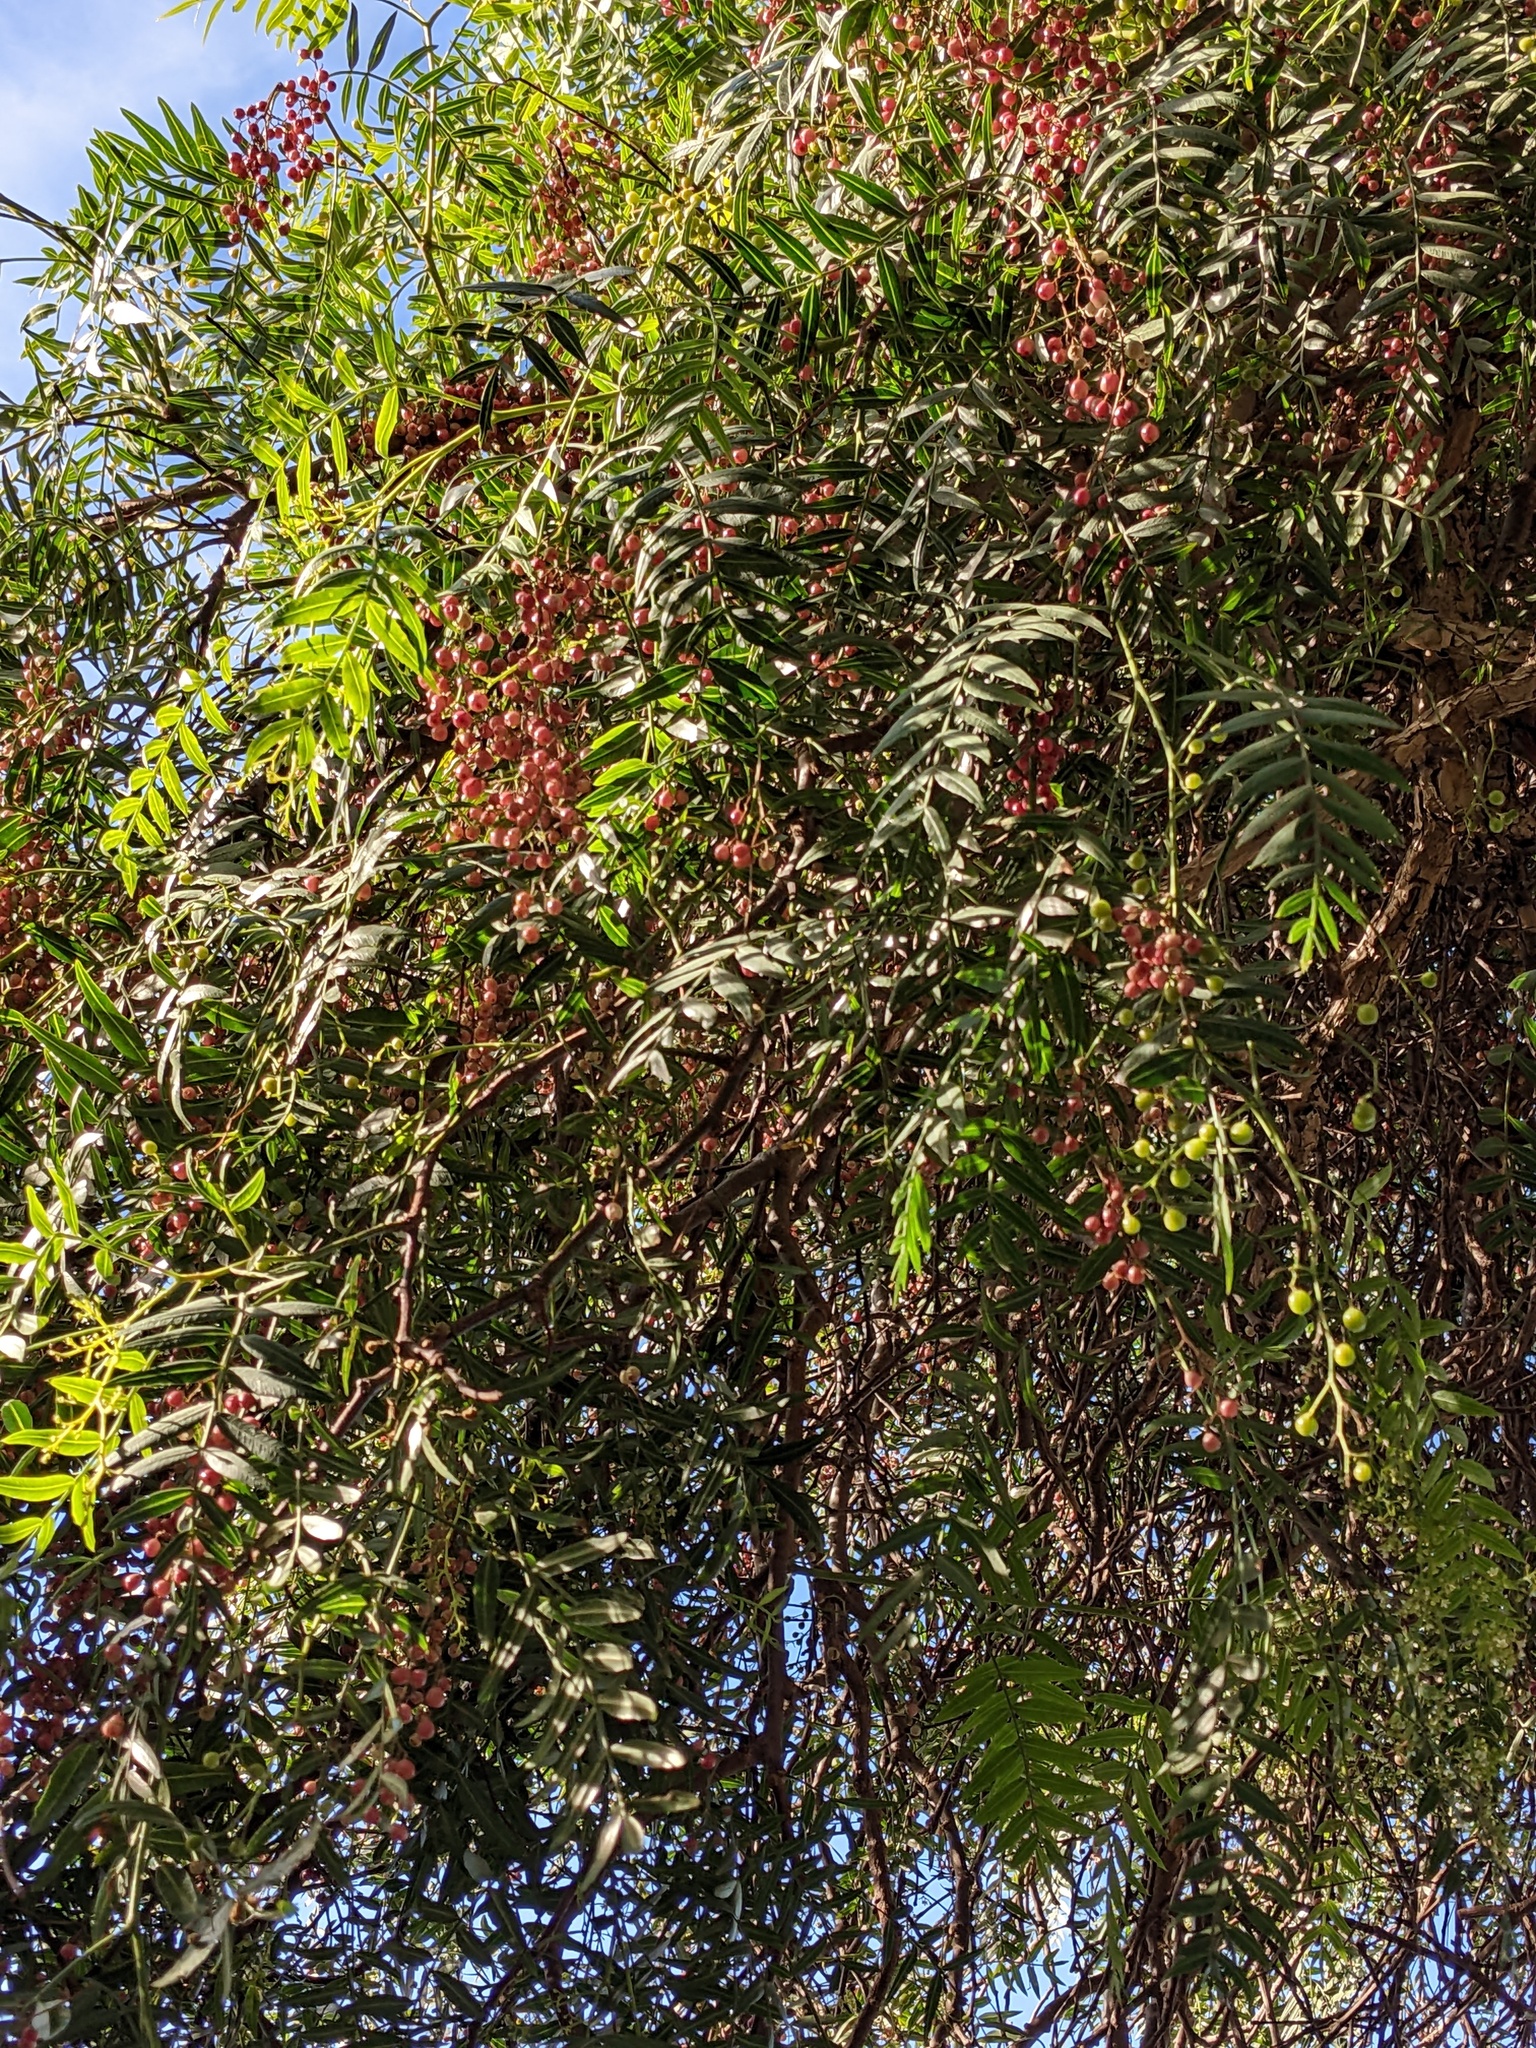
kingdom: Plantae
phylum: Tracheophyta
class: Magnoliopsida
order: Sapindales
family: Anacardiaceae
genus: Schinus
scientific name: Schinus molle
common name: Peruvian peppertree
